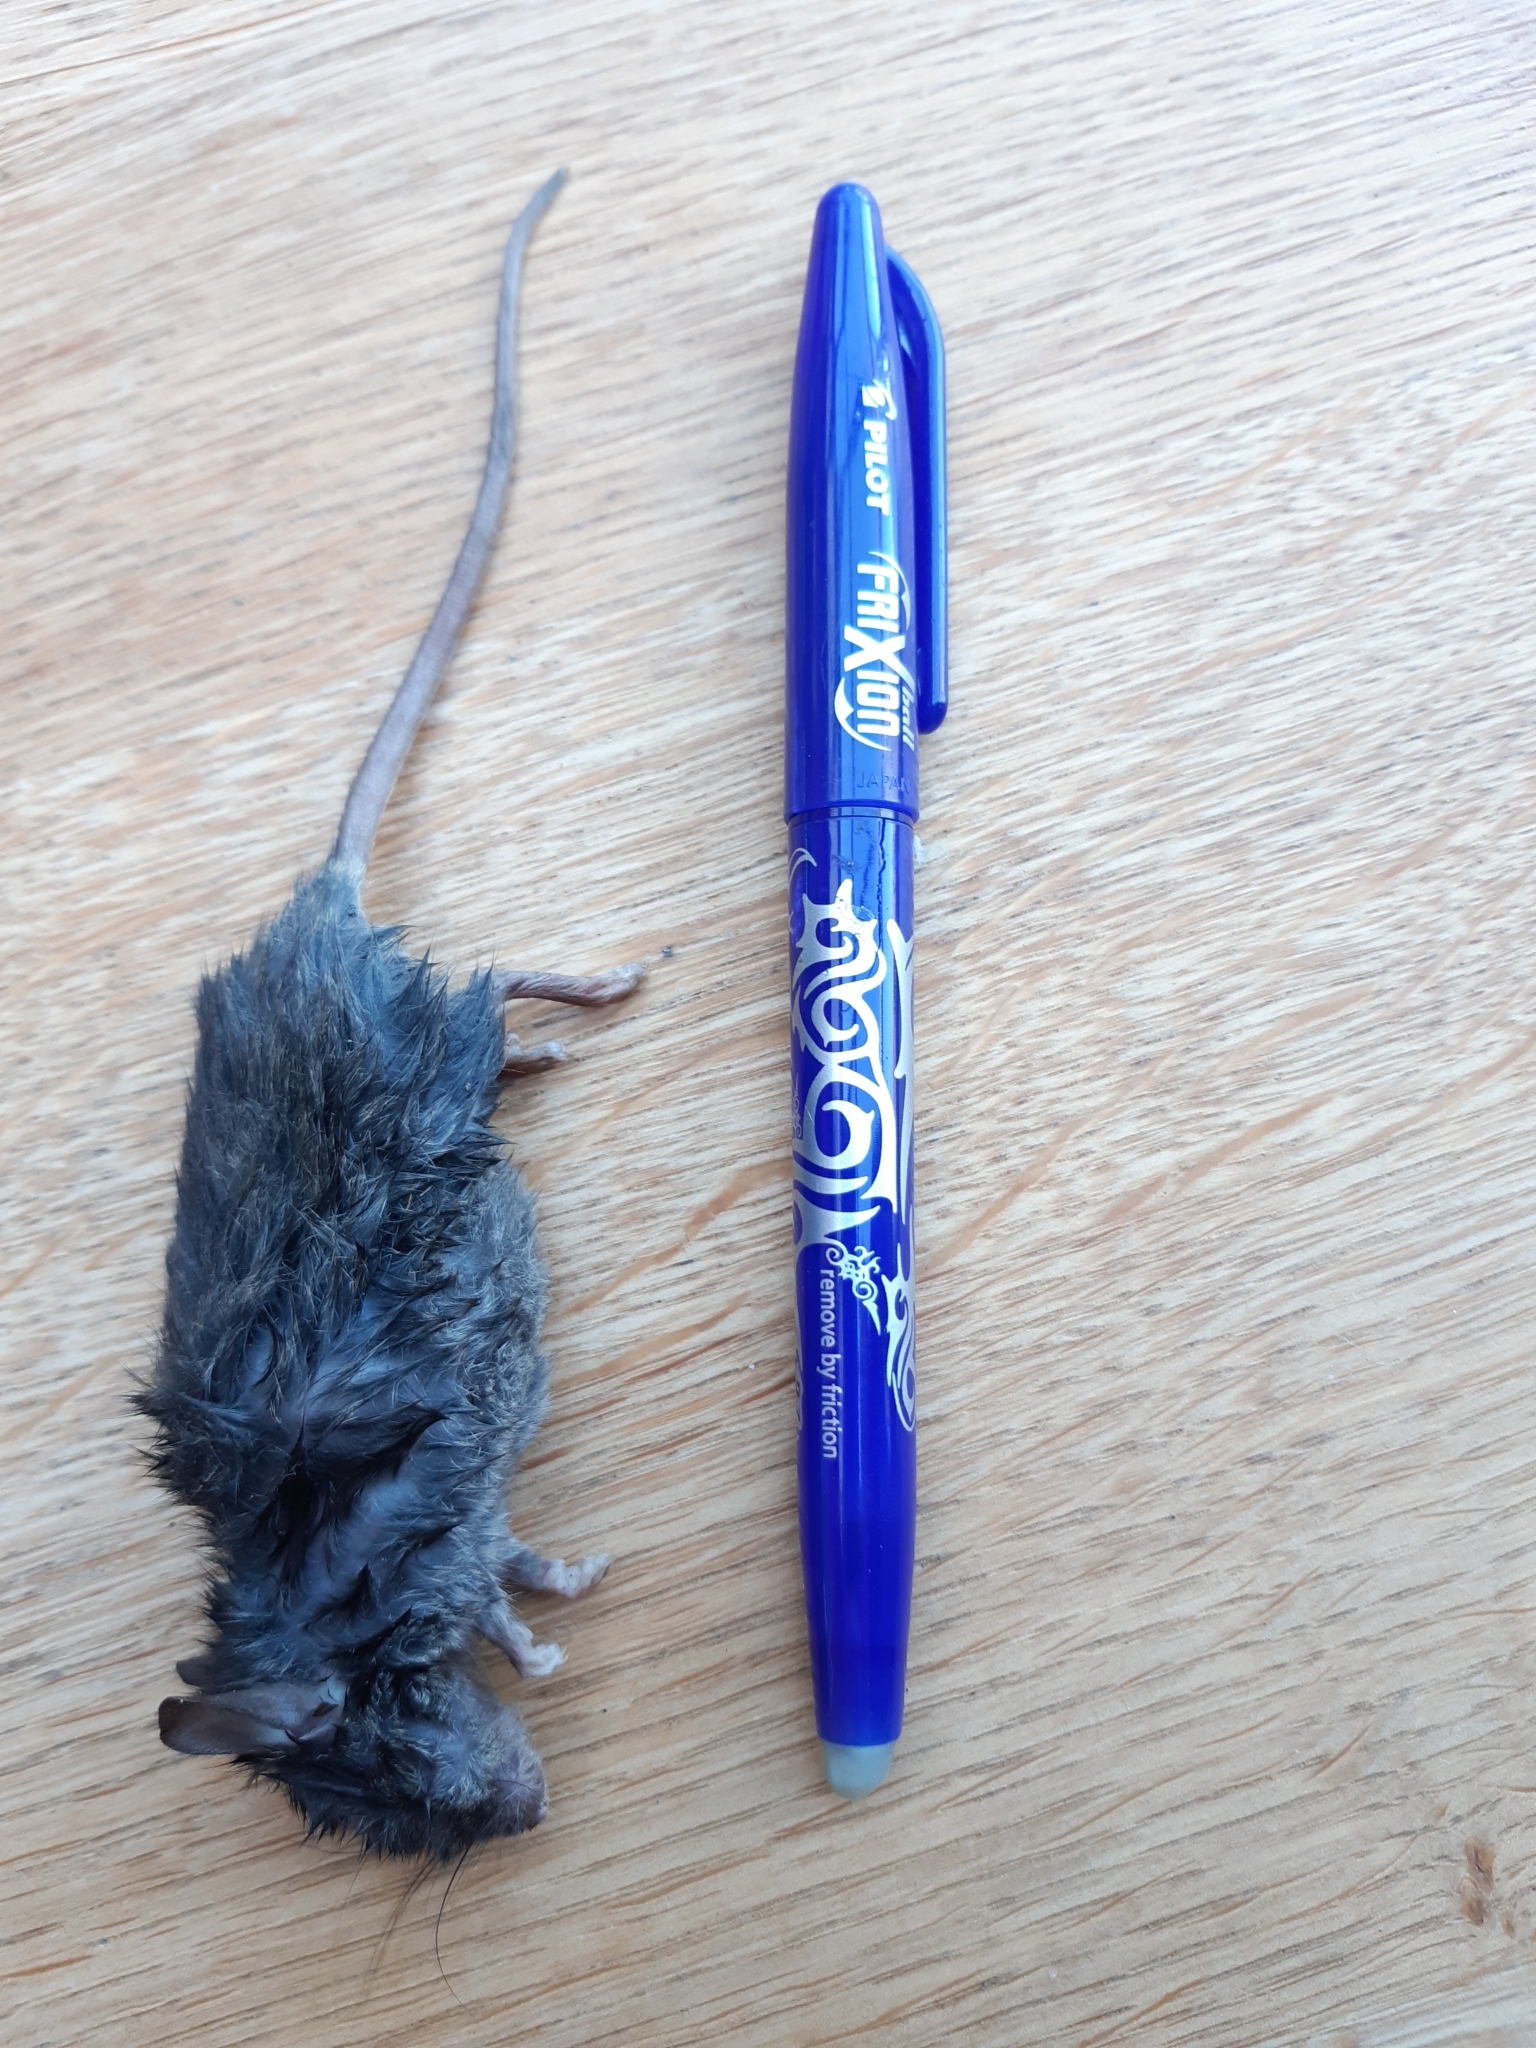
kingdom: Animalia
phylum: Chordata
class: Mammalia
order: Rodentia
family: Muridae
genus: Mus
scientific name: Mus musculus
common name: House mouse
